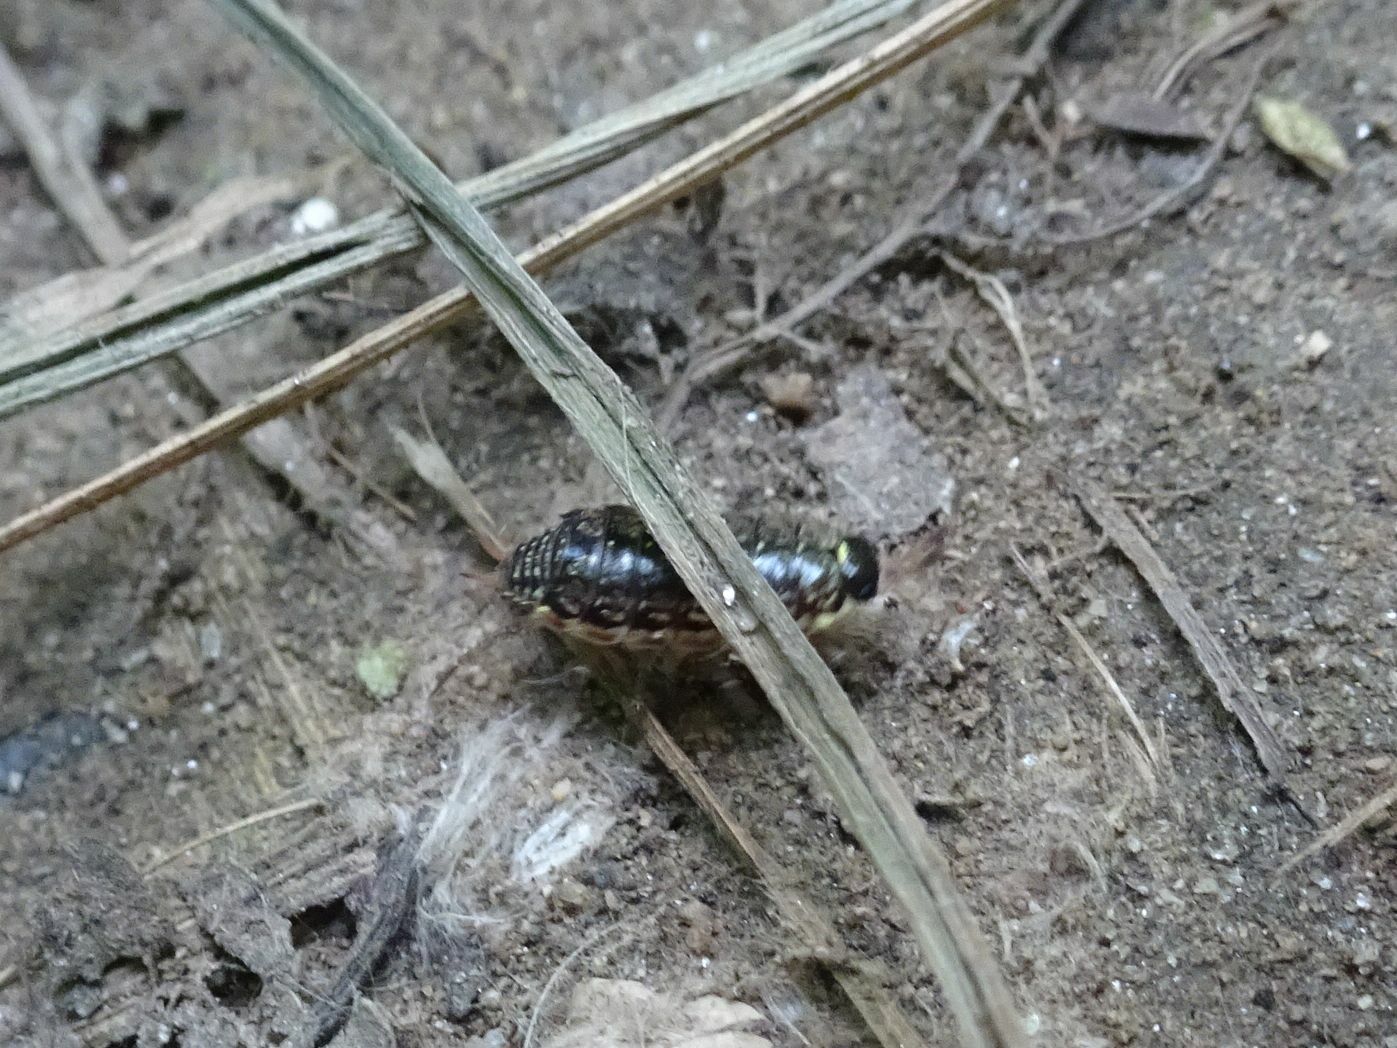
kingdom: Animalia
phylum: Arthropoda
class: Malacostraca
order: Isopoda
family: Philosciidae
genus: Philoscia
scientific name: Philoscia muscorum
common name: Common striped woodlouse
